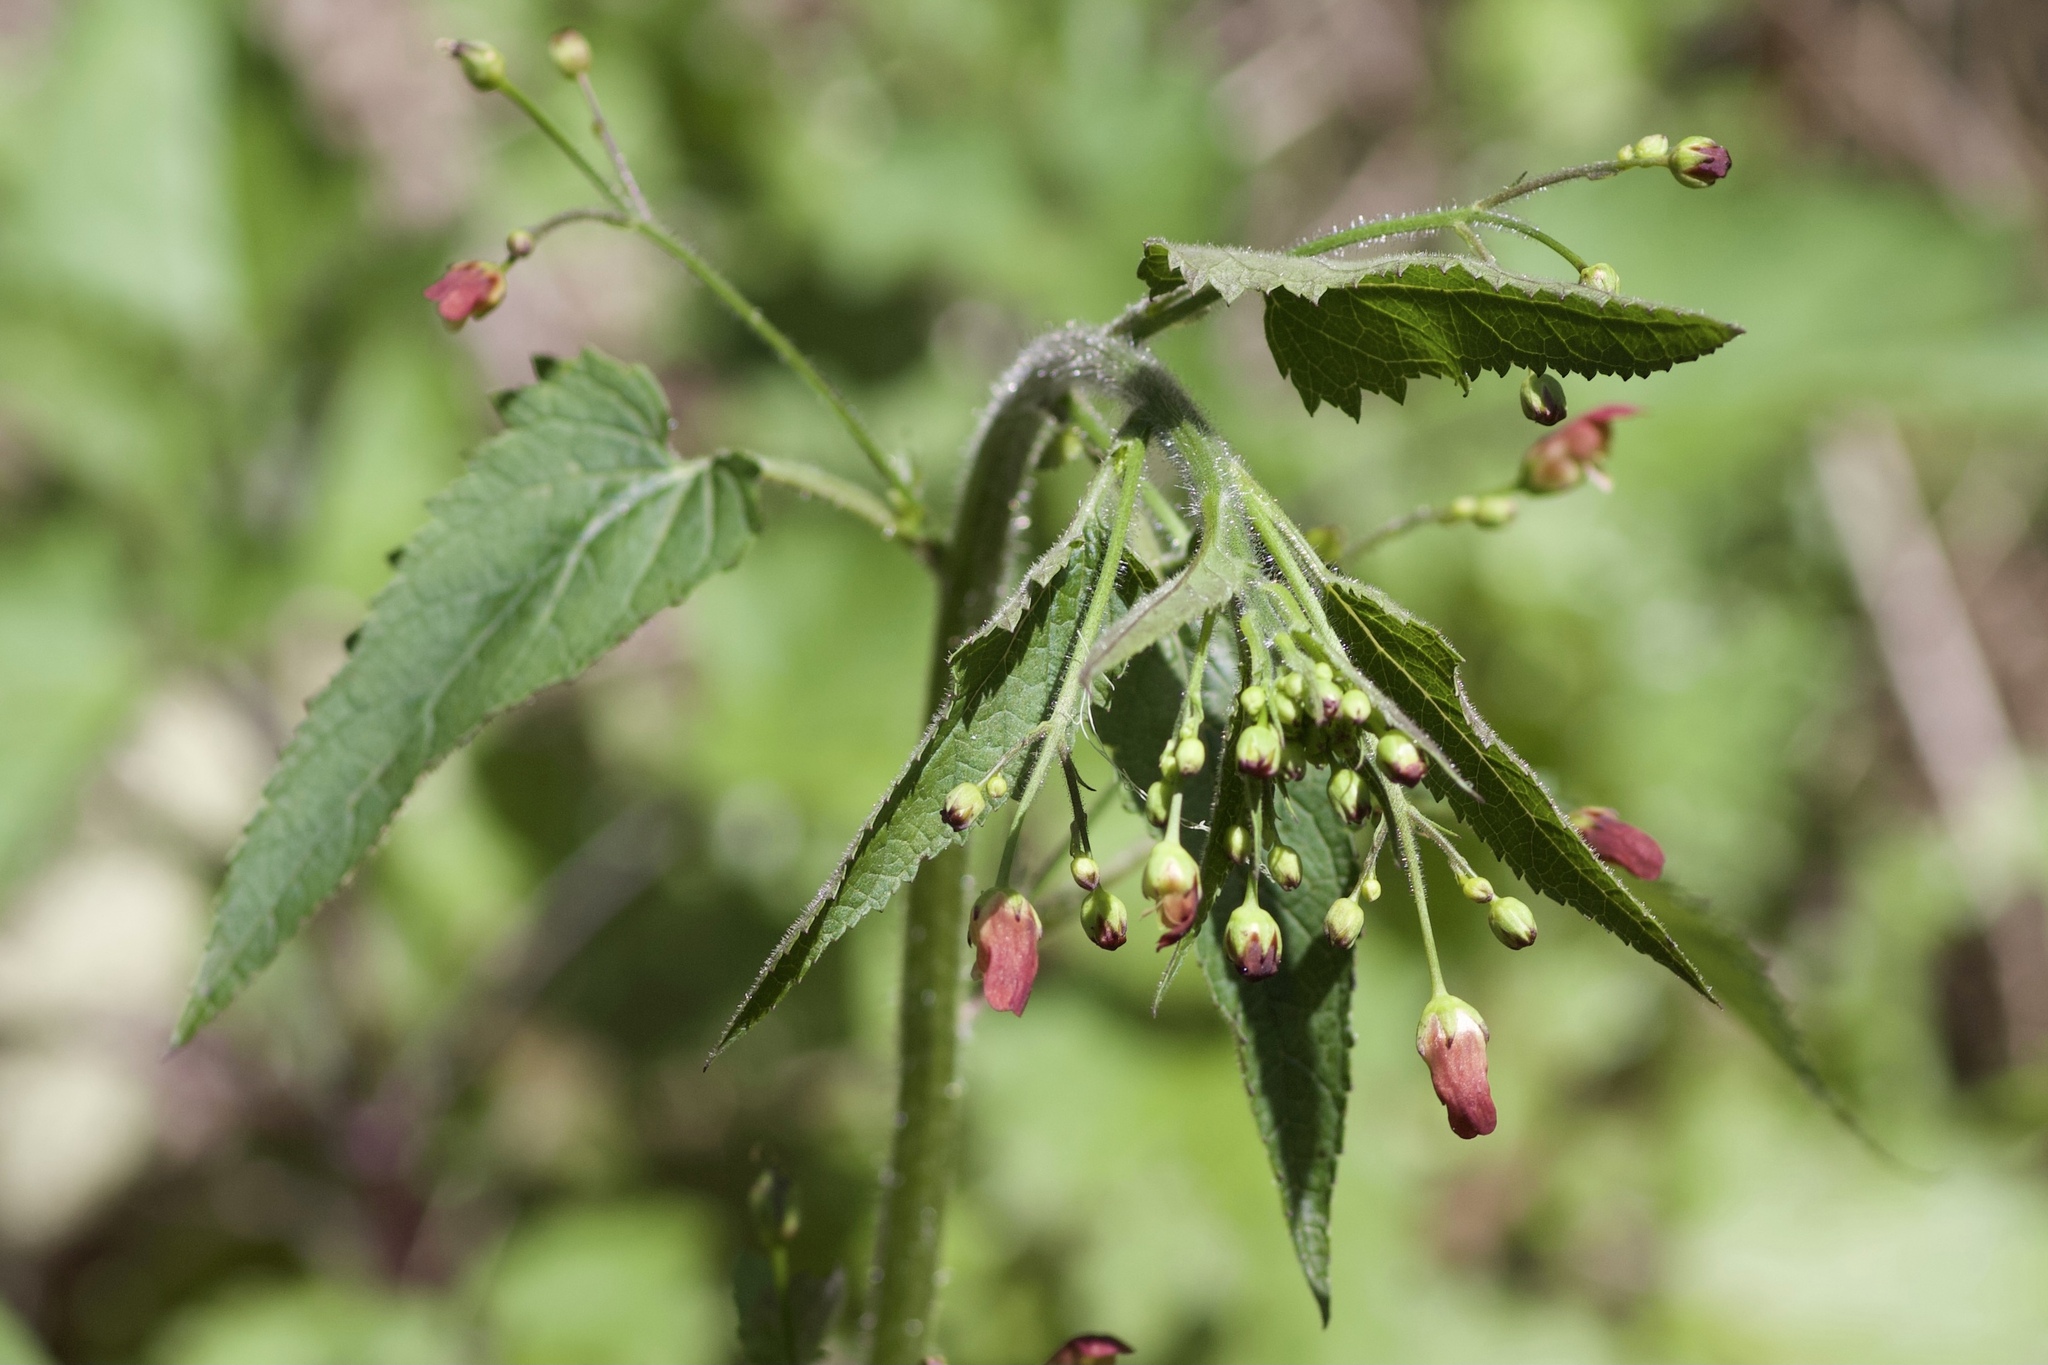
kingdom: Plantae
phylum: Tracheophyta
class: Magnoliopsida
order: Lamiales
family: Scrophulariaceae
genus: Scrophularia
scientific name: Scrophularia californica
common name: California figwort
